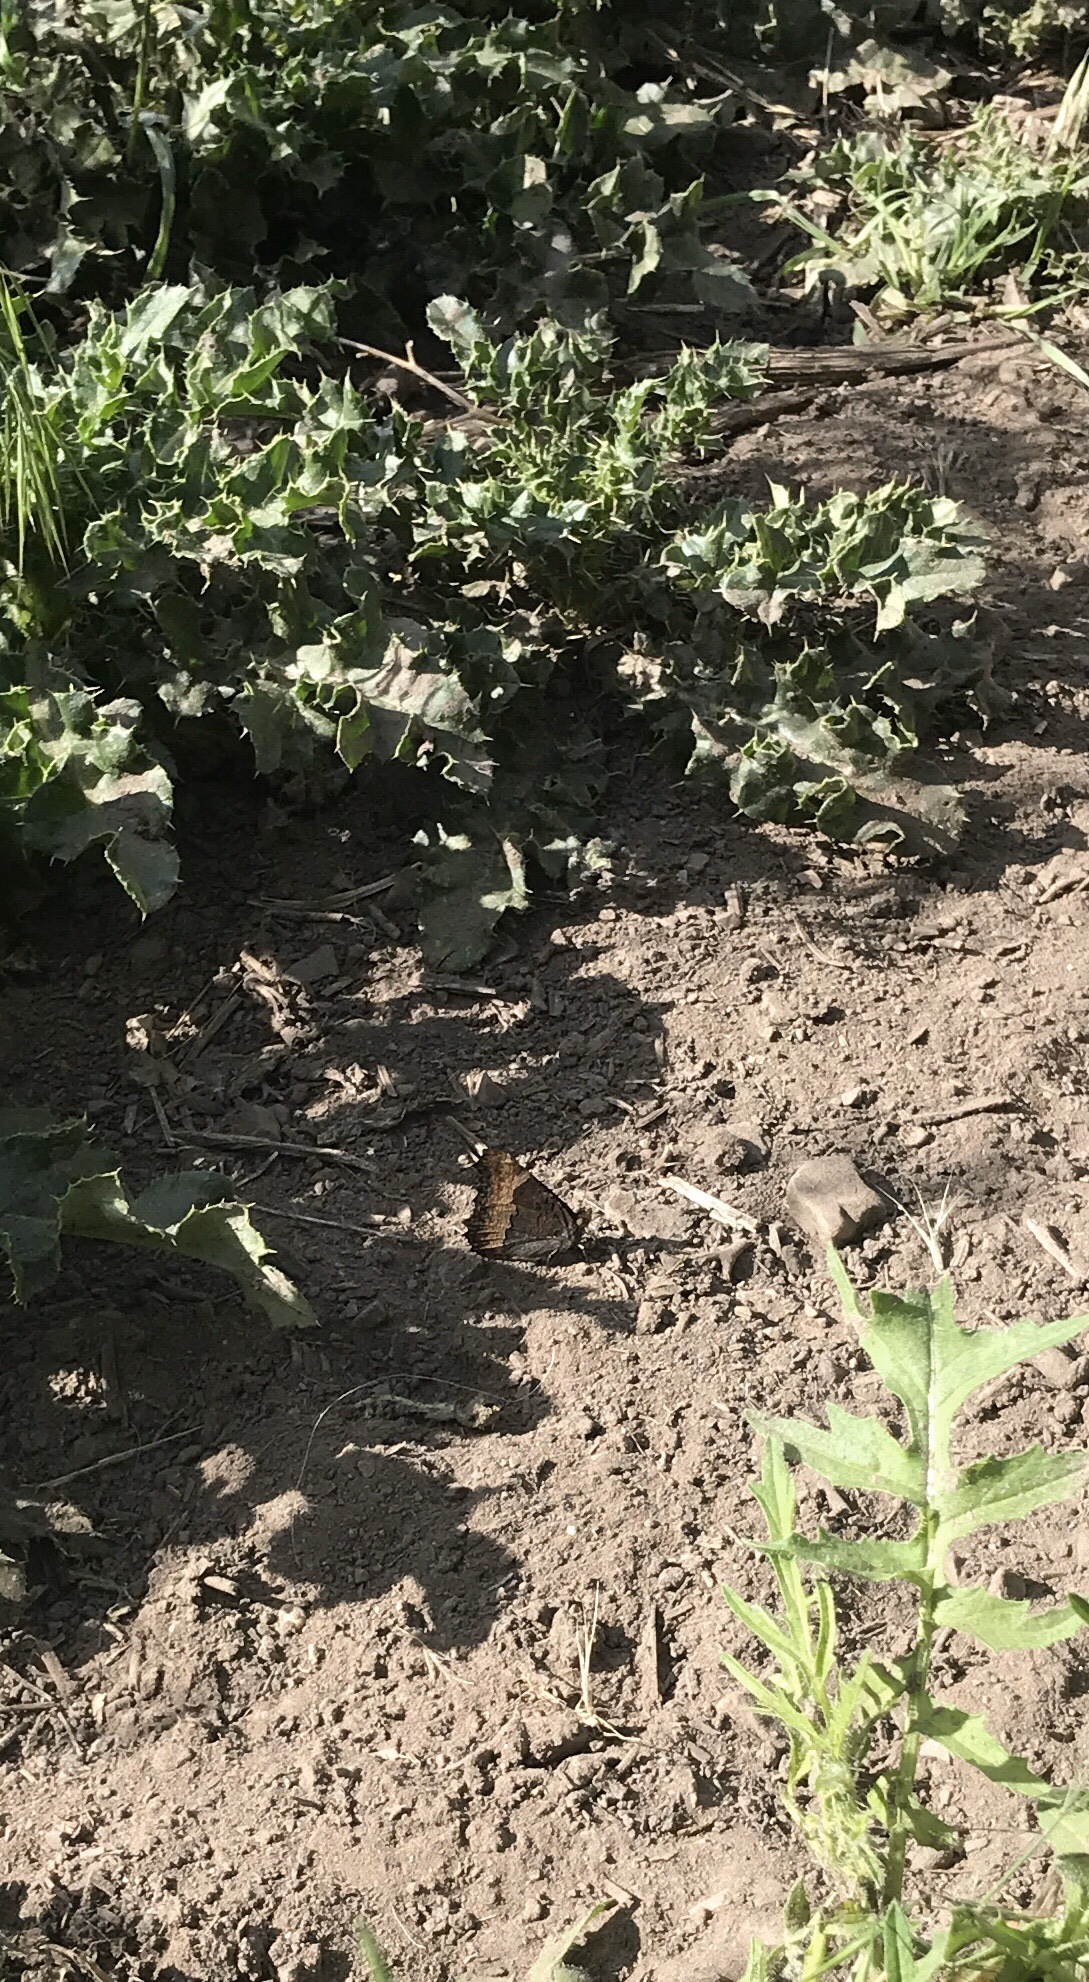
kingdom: Animalia
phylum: Arthropoda
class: Insecta
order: Lepidoptera
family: Nymphalidae
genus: Aglais
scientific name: Aglais milberti
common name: Milbert's tortoiseshell
